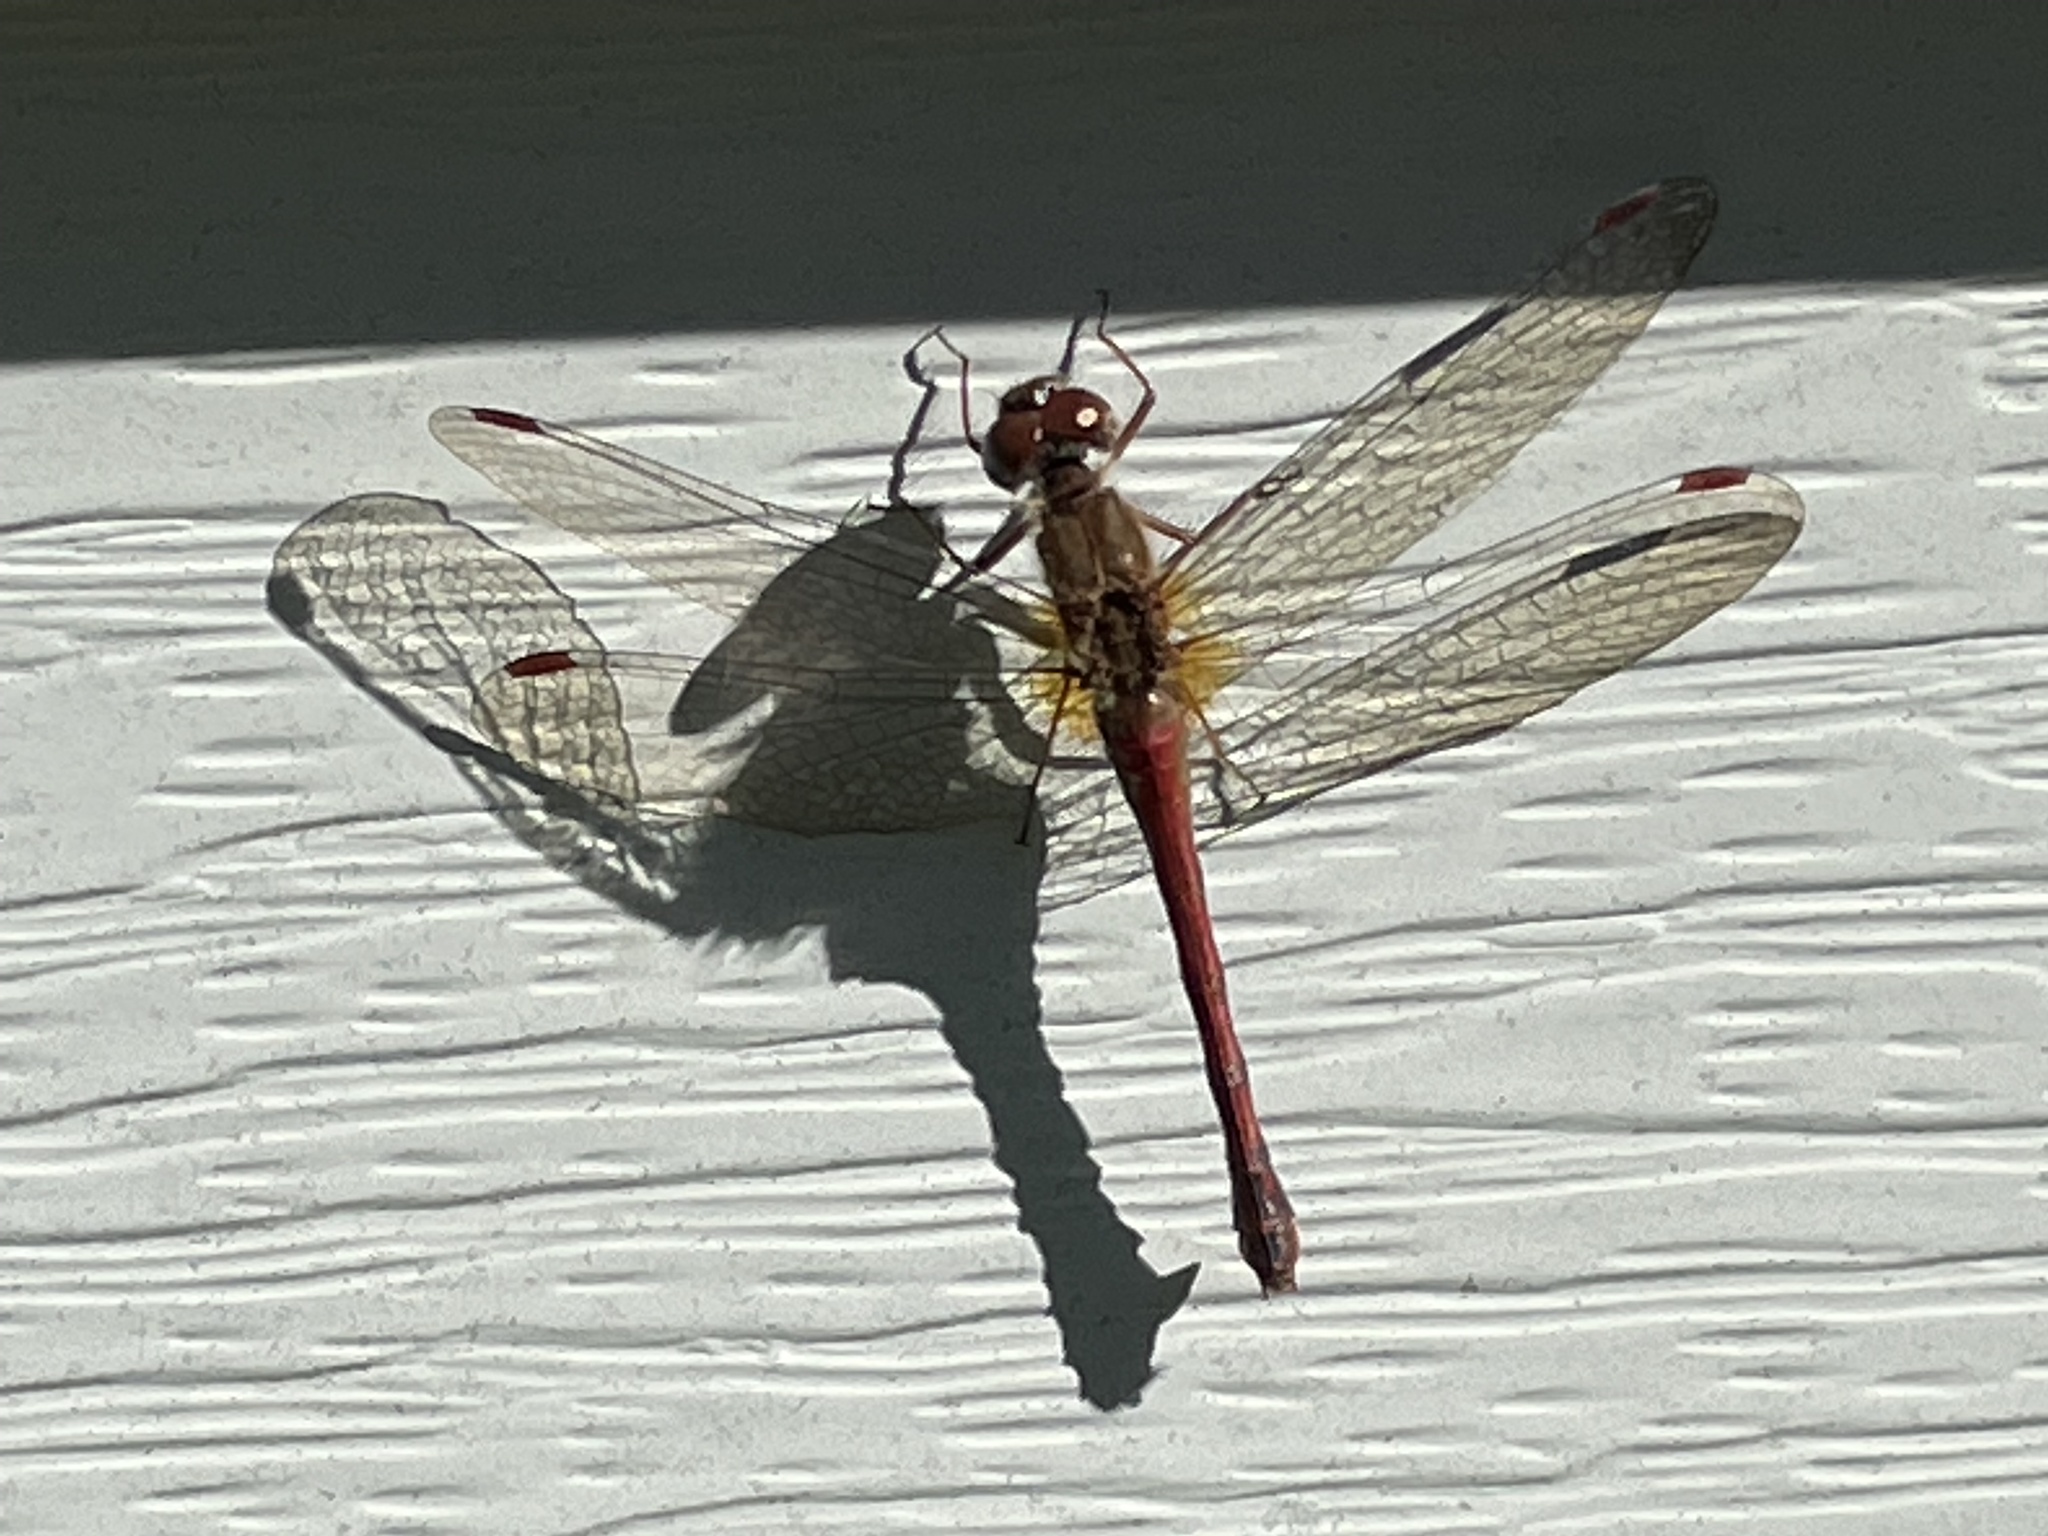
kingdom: Animalia
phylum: Arthropoda
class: Insecta
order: Odonata
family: Libellulidae
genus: Sympetrum
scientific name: Sympetrum vicinum
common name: Autumn meadowhawk
